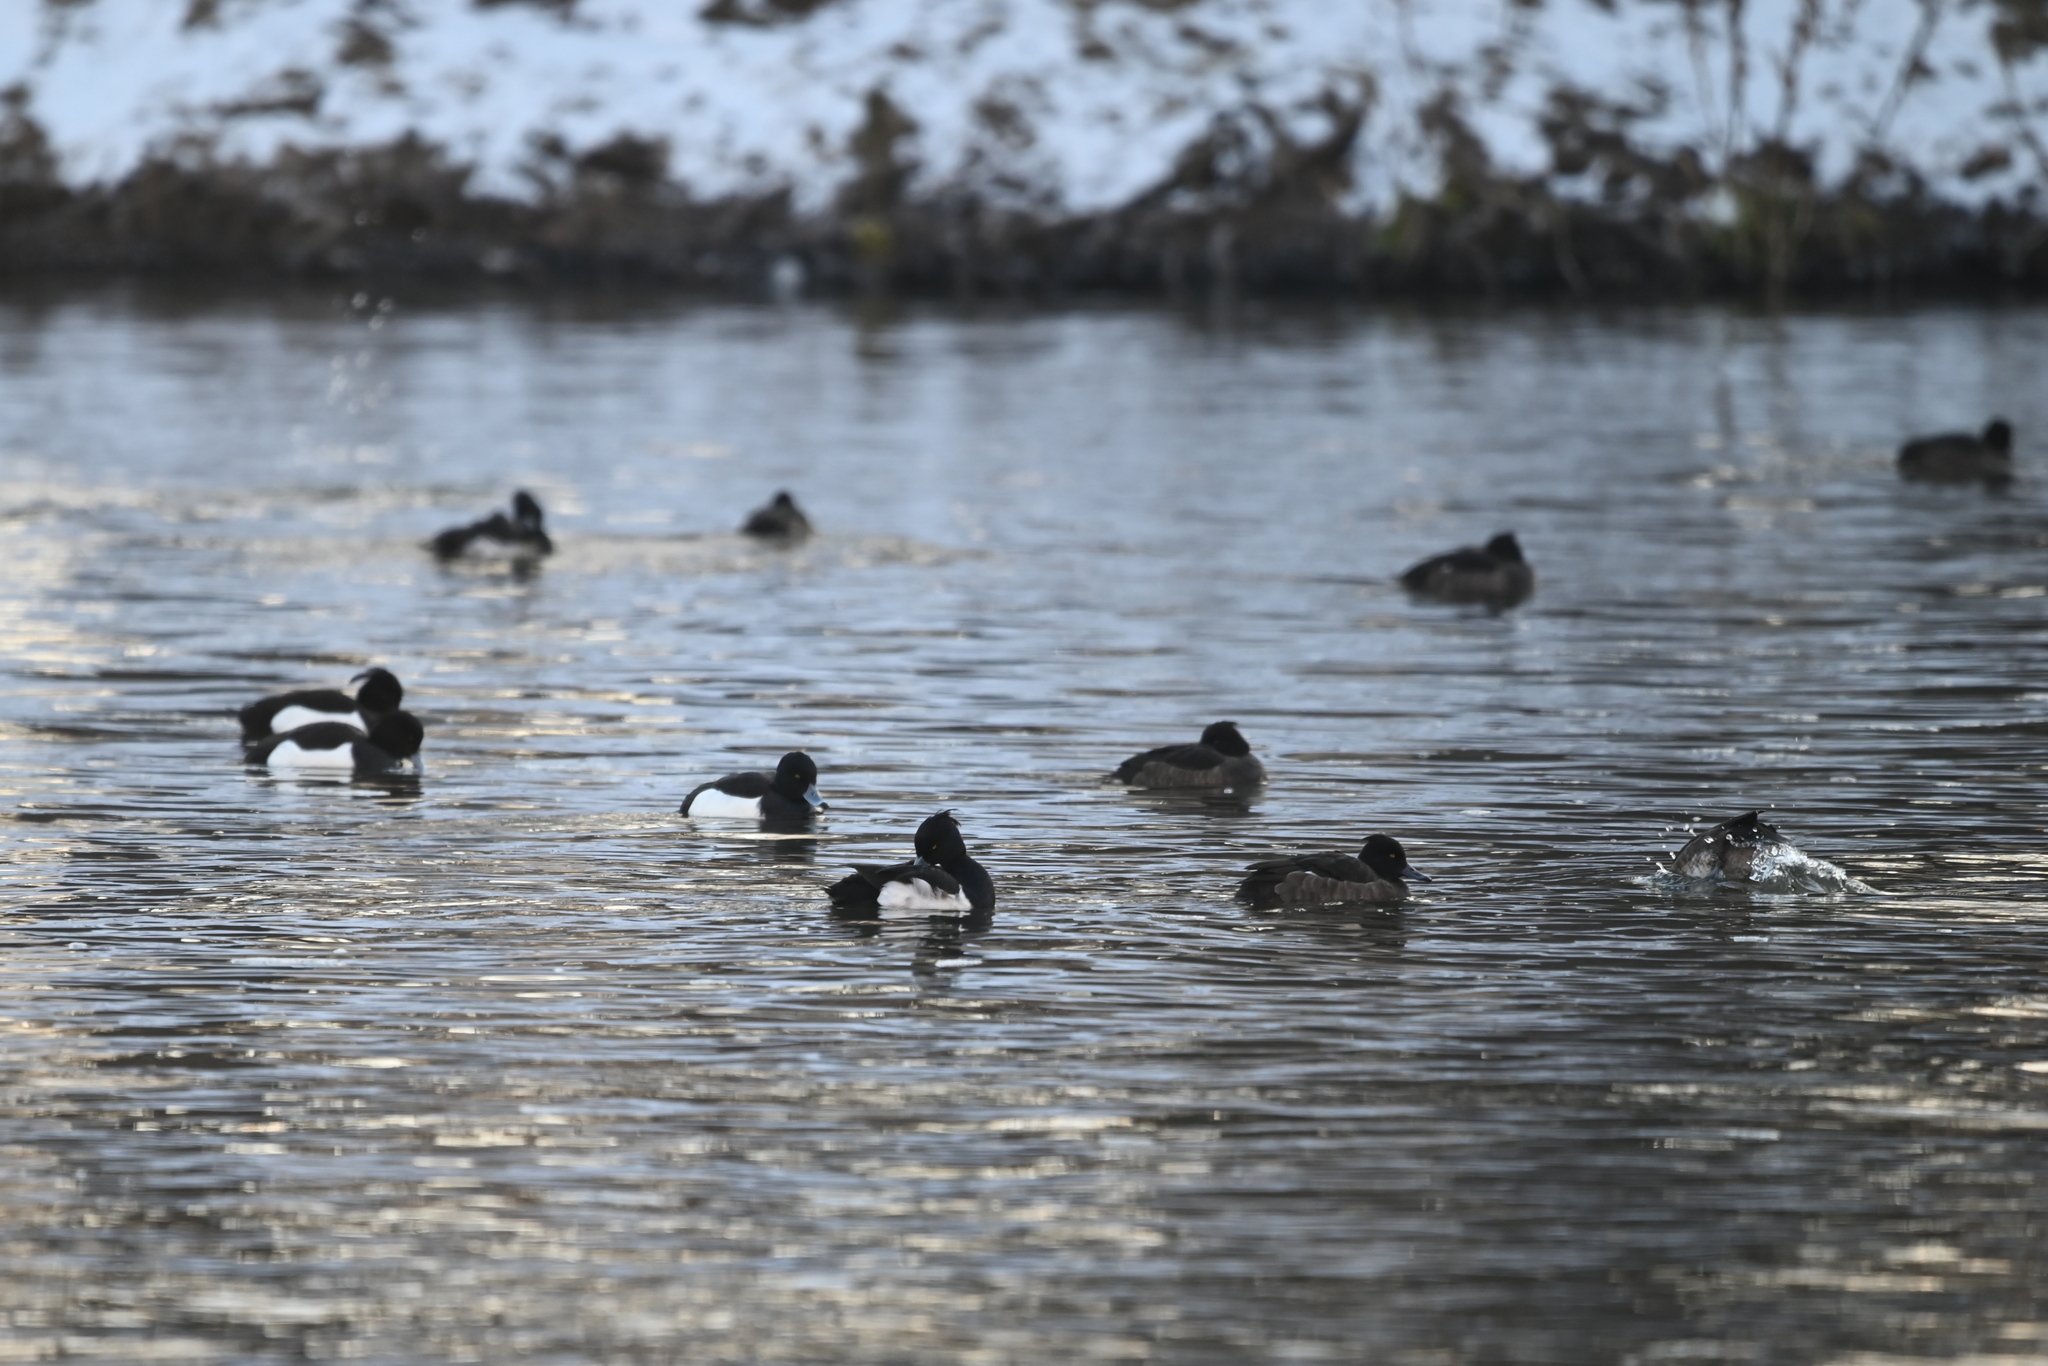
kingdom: Animalia
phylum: Chordata
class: Aves
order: Anseriformes
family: Anatidae
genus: Aythya
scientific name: Aythya fuligula
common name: Tufted duck
